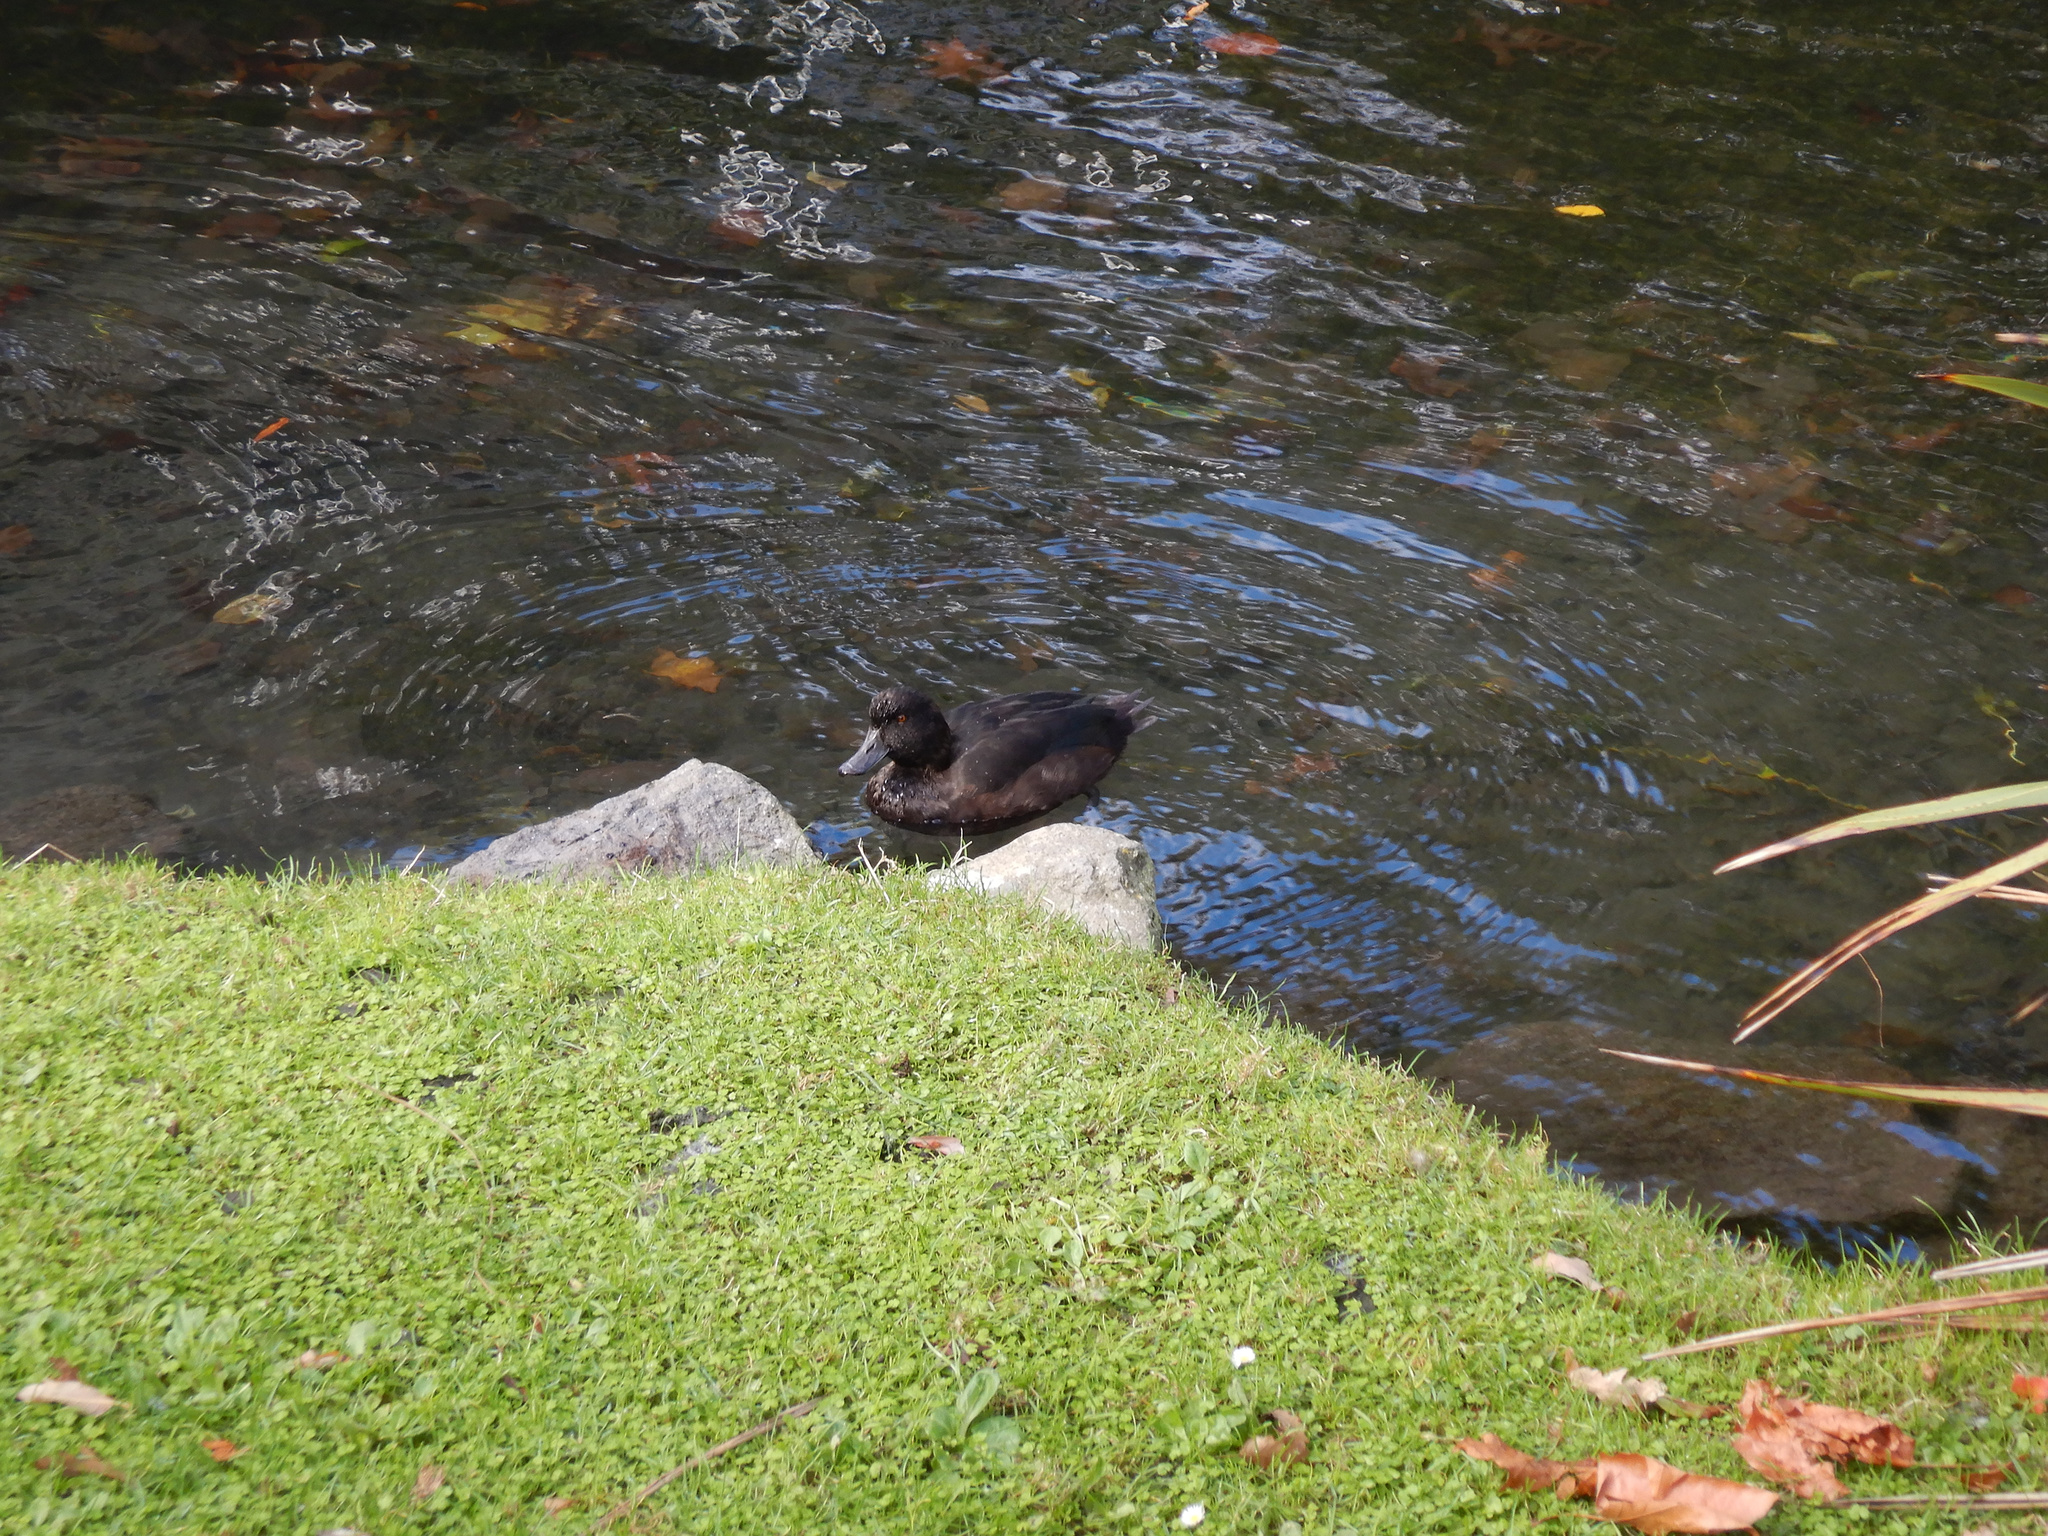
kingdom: Animalia
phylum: Chordata
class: Aves
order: Anseriformes
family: Anatidae
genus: Aythya
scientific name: Aythya novaeseelandiae
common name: New zealand scaup
